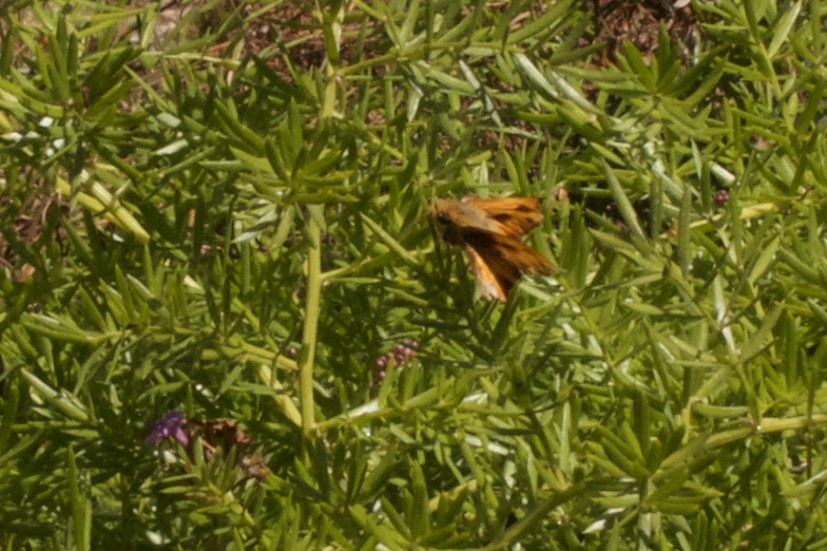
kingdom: Animalia
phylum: Arthropoda
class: Insecta
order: Lepidoptera
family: Hesperiidae
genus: Hylephila
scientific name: Hylephila phyleus
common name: Fiery skipper
